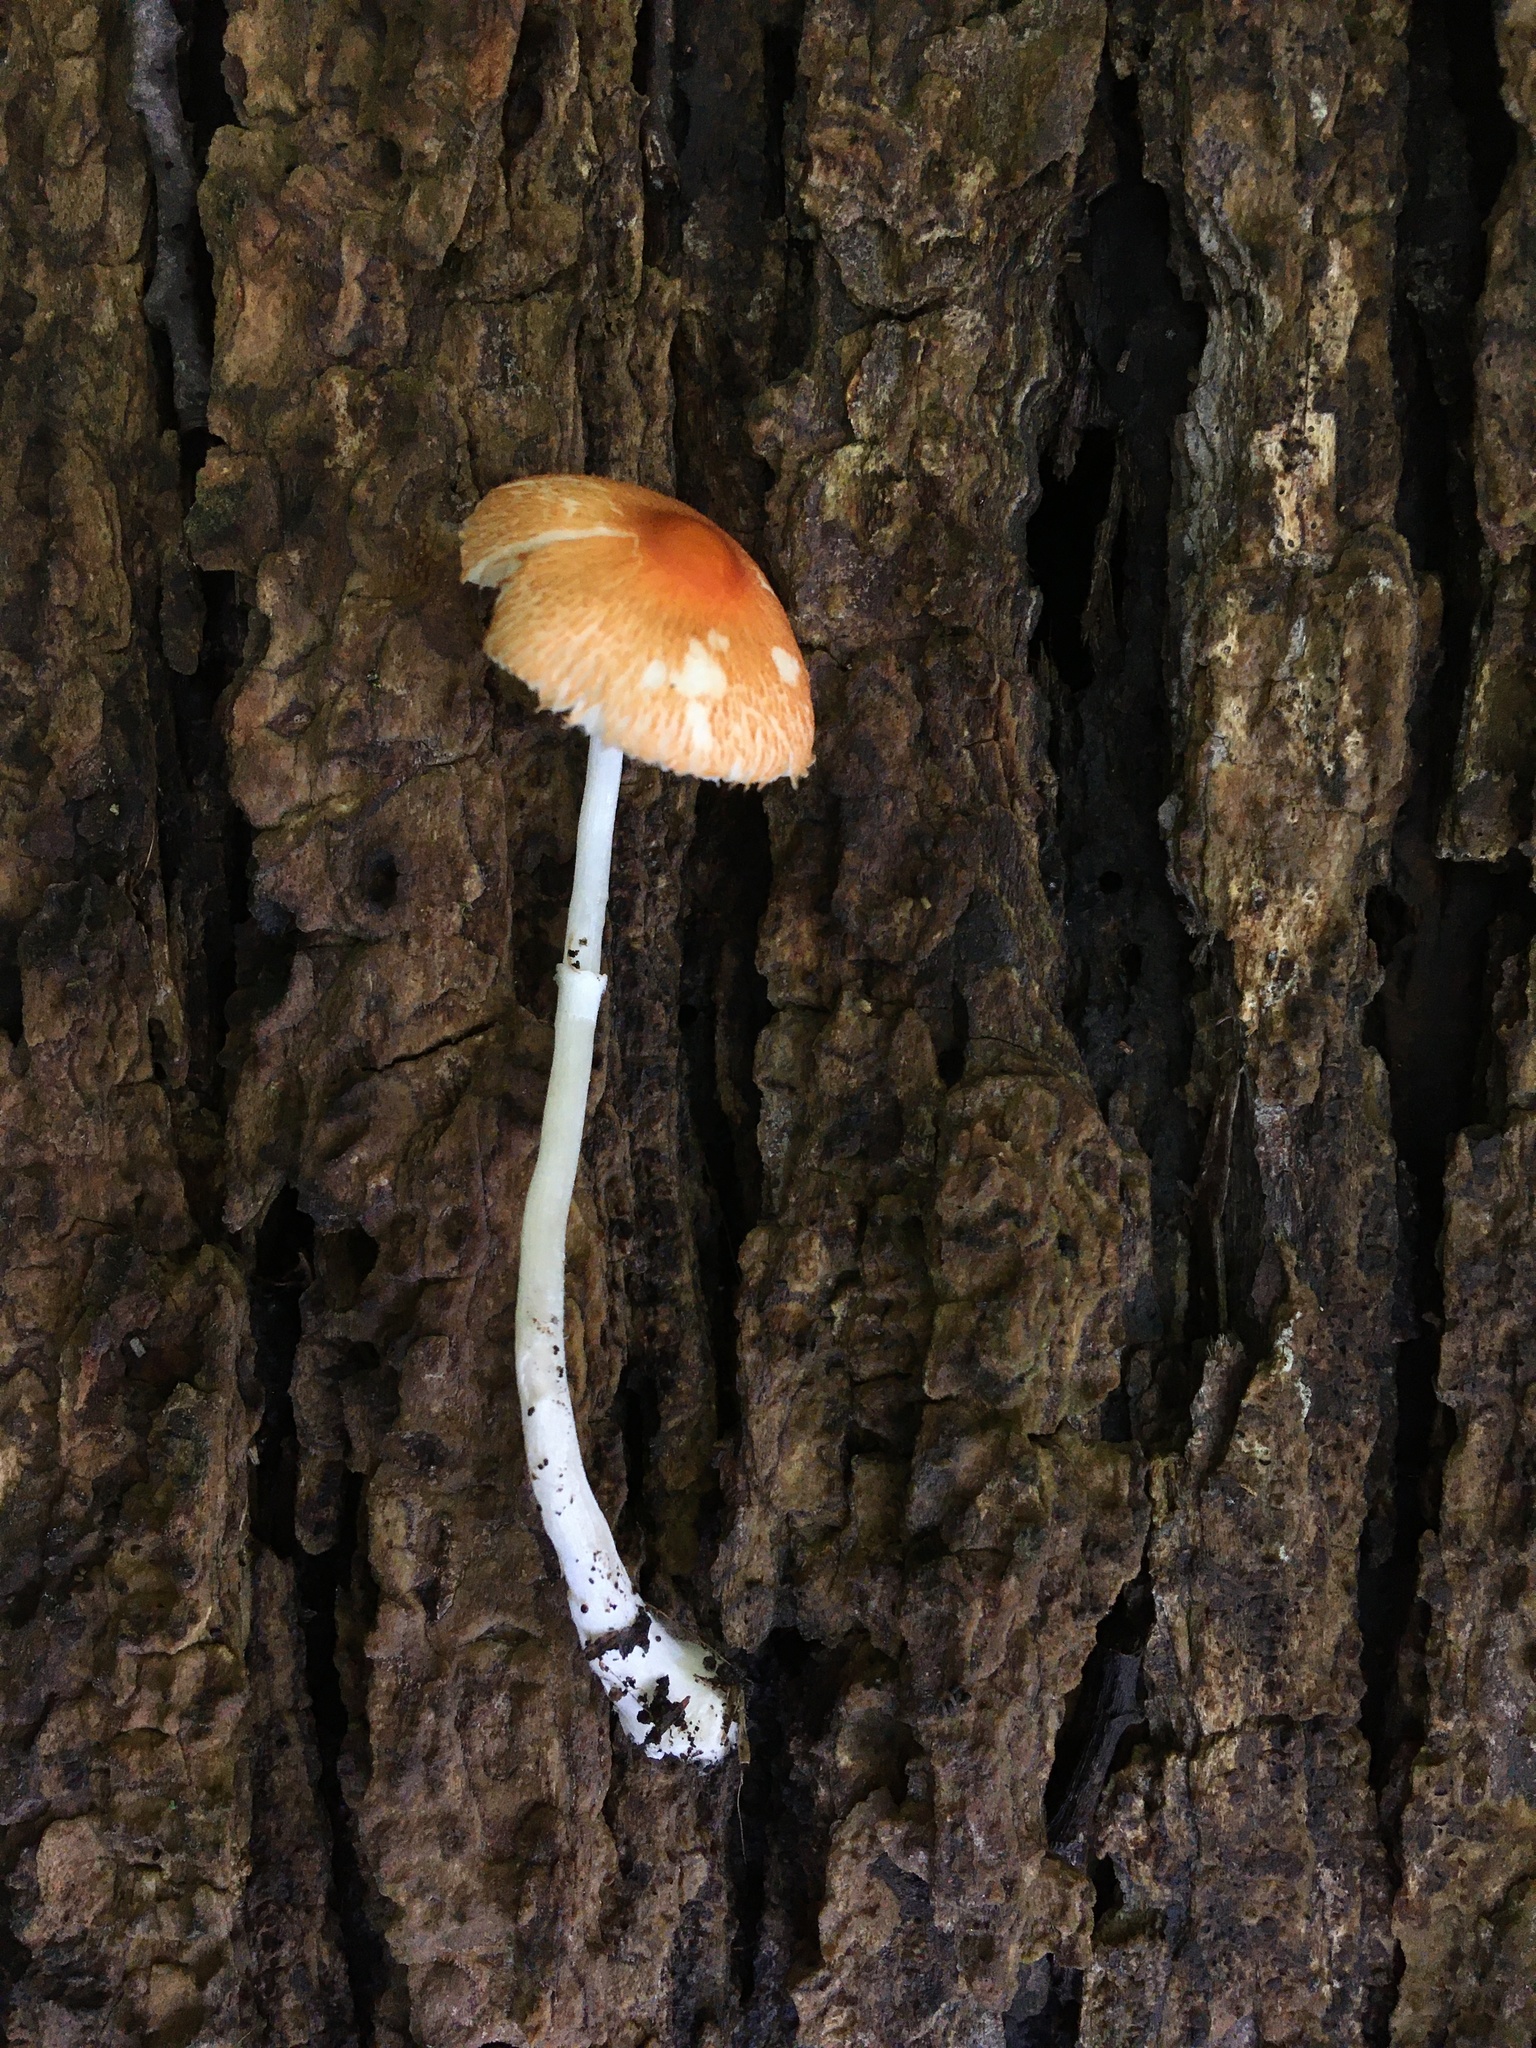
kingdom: Fungi
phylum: Basidiomycota
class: Agaricomycetes
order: Agaricales
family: Agaricaceae
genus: Leucoagaricus
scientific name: Leucoagaricus rubrotinctus
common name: Ruby dapperling
